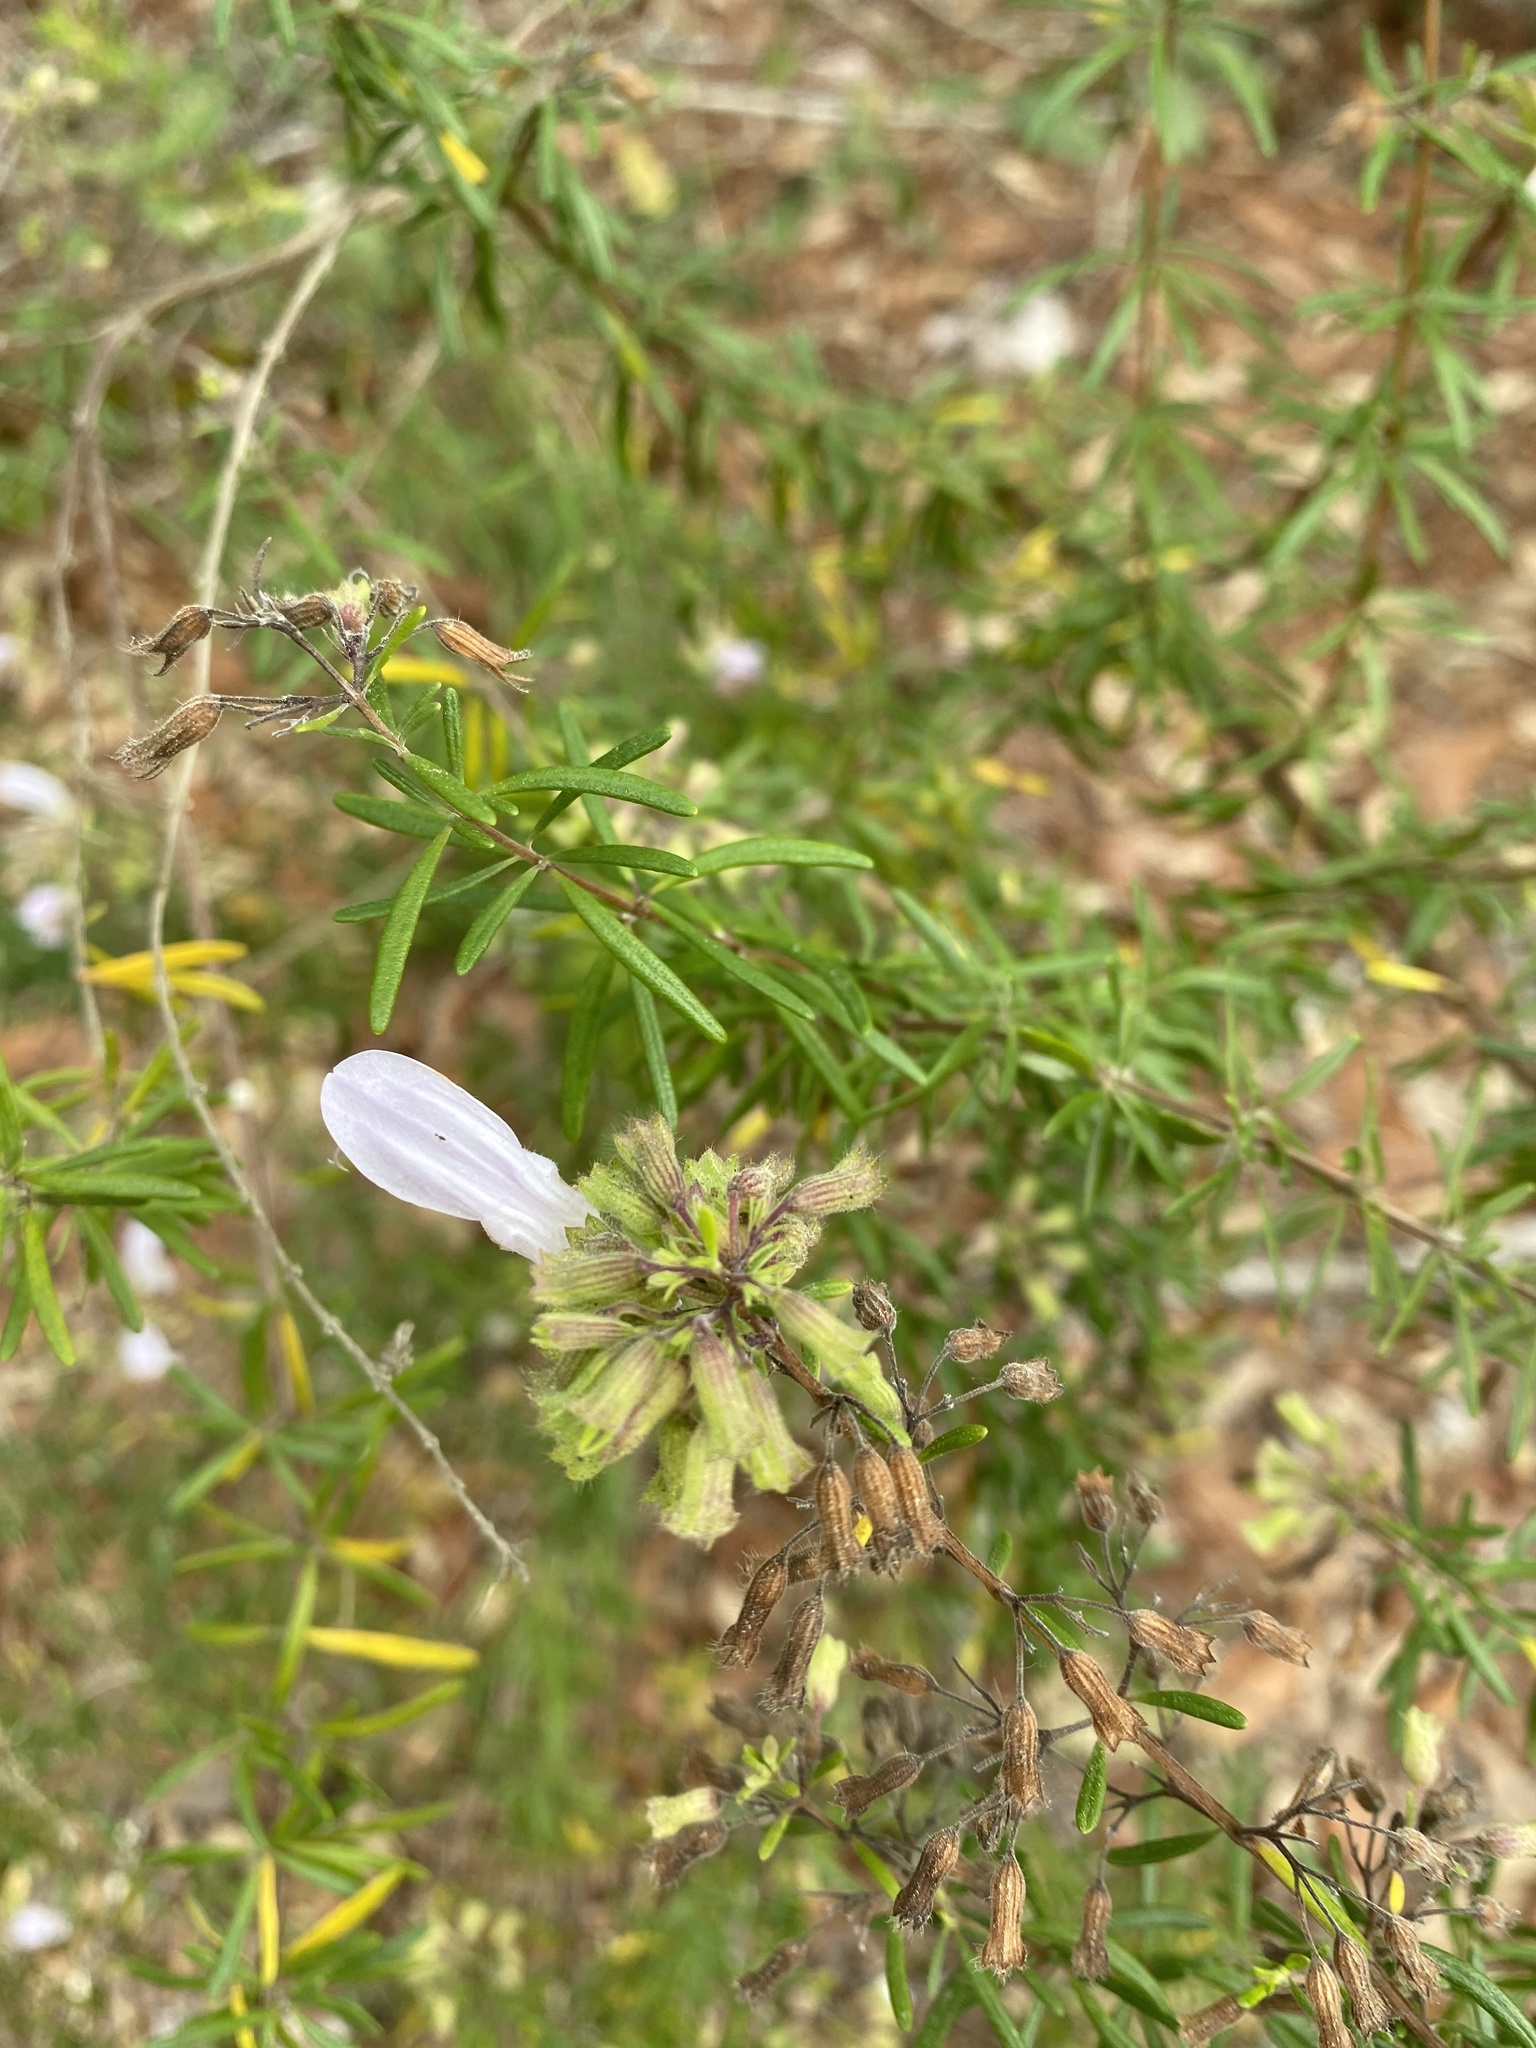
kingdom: Plantae
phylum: Tracheophyta
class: Magnoliopsida
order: Lamiales
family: Lamiaceae
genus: Conradina
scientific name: Conradina grandiflora
